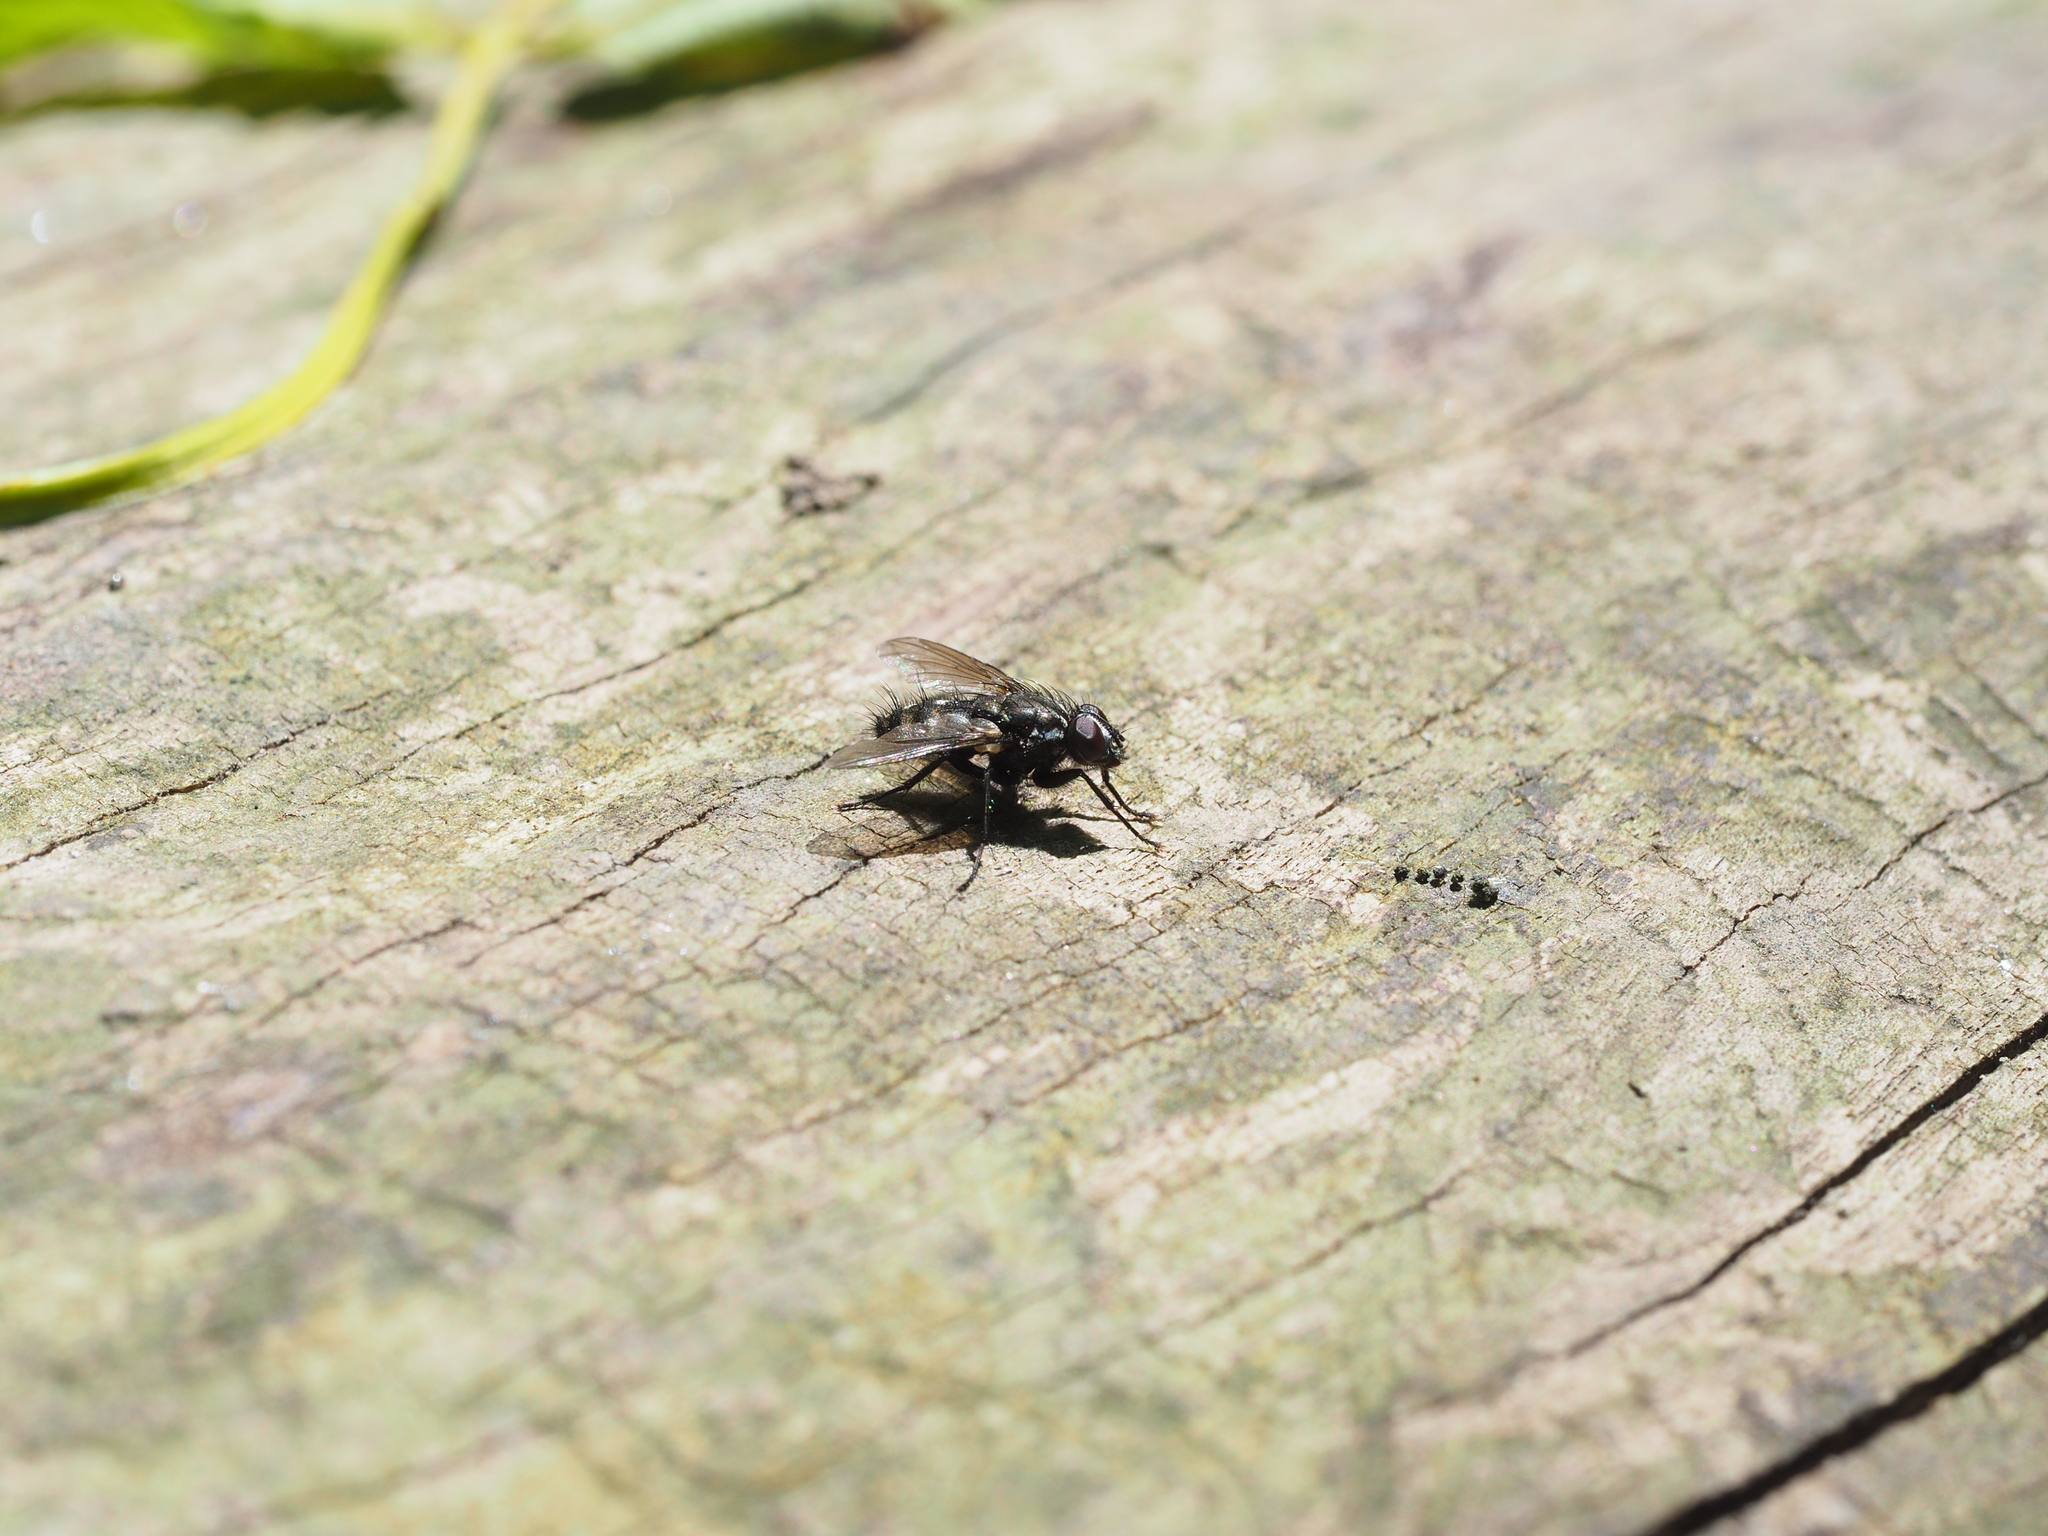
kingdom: Animalia
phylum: Arthropoda
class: Insecta
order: Diptera
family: Calliphoridae
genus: Rhinomorinia
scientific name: Rhinomorinia sarcophagina
